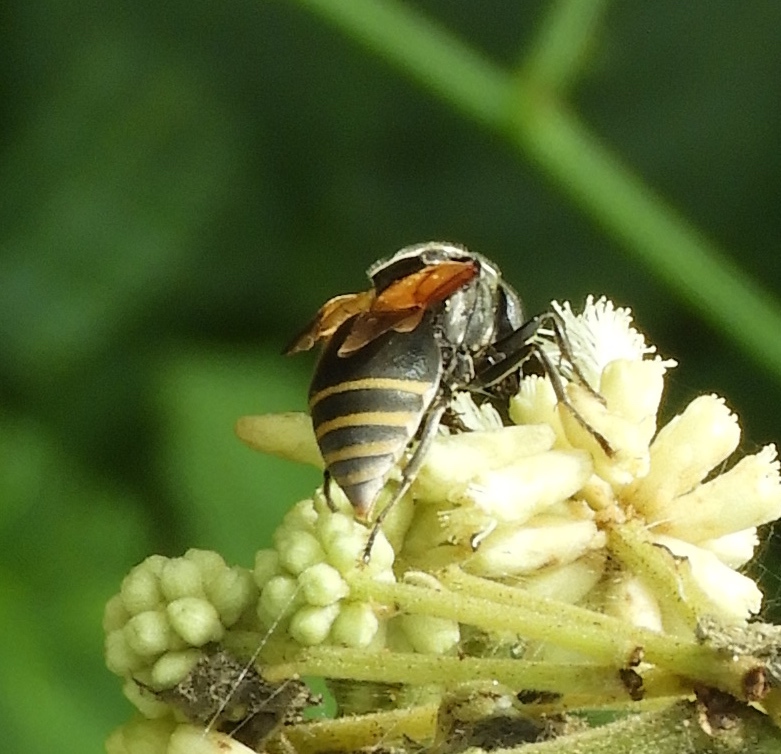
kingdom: Animalia
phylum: Arthropoda
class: Insecta
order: Hymenoptera
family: Vespidae
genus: Brachygastra
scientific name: Brachygastra mellifica
